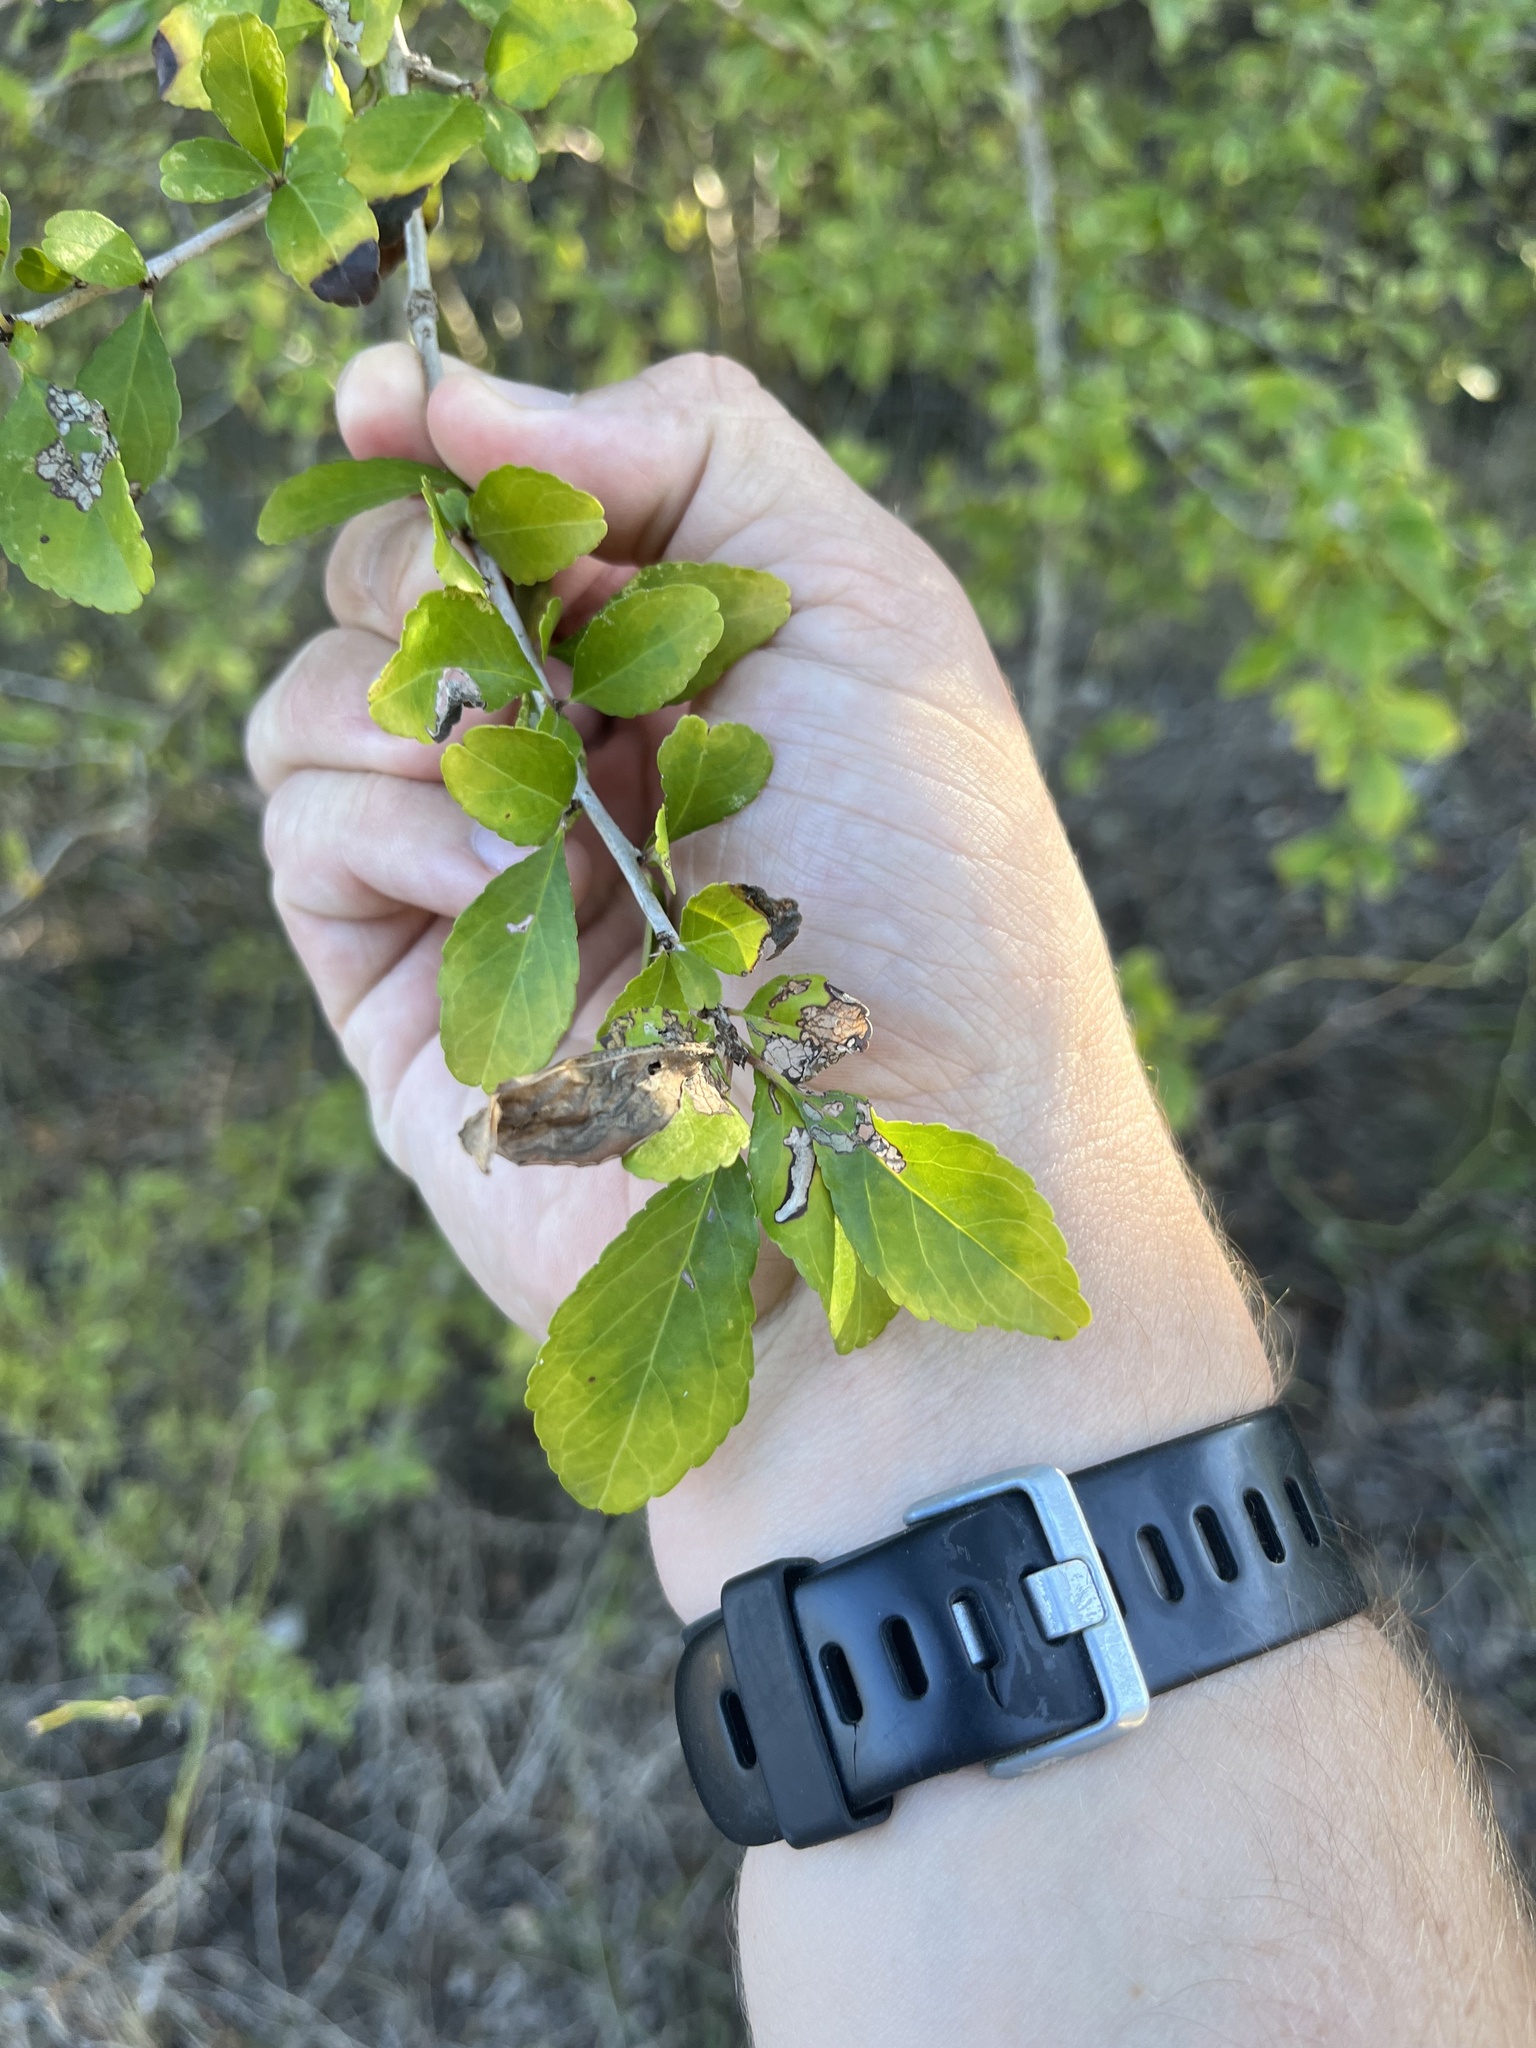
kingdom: Plantae
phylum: Tracheophyta
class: Magnoliopsida
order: Aquifoliales
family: Aquifoliaceae
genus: Ilex
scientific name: Ilex decidua
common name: Possum-haw
